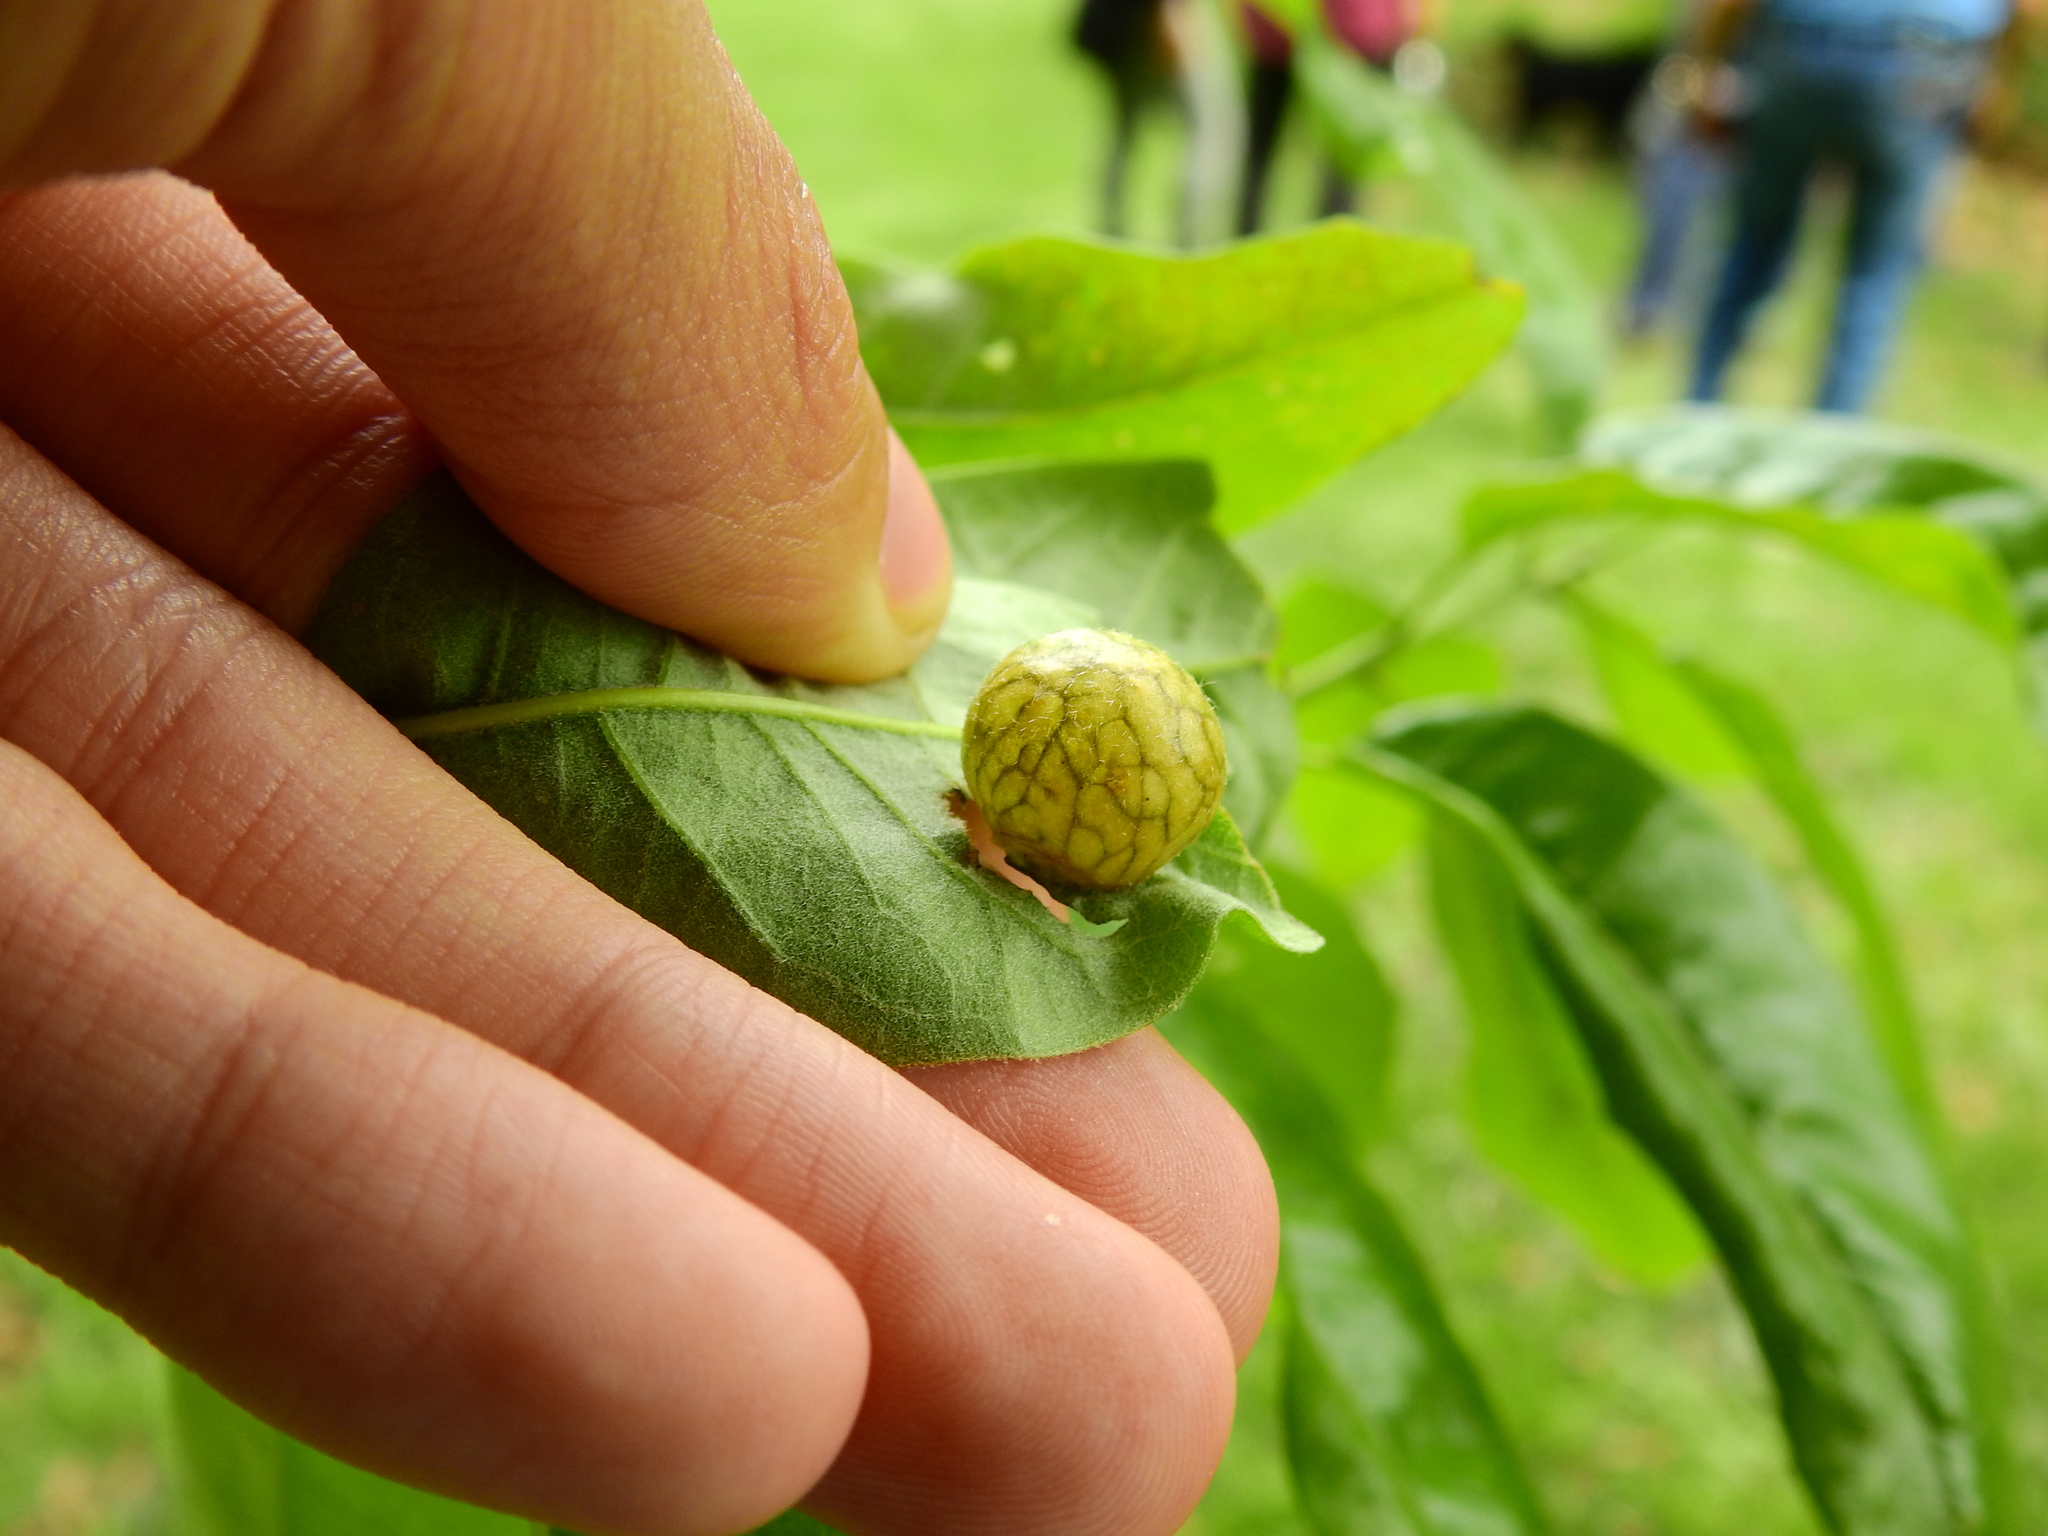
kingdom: Animalia
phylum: Arthropoda
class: Insecta
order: Hymenoptera
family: Cynipidae
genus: Amphibolips
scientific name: Amphibolips
